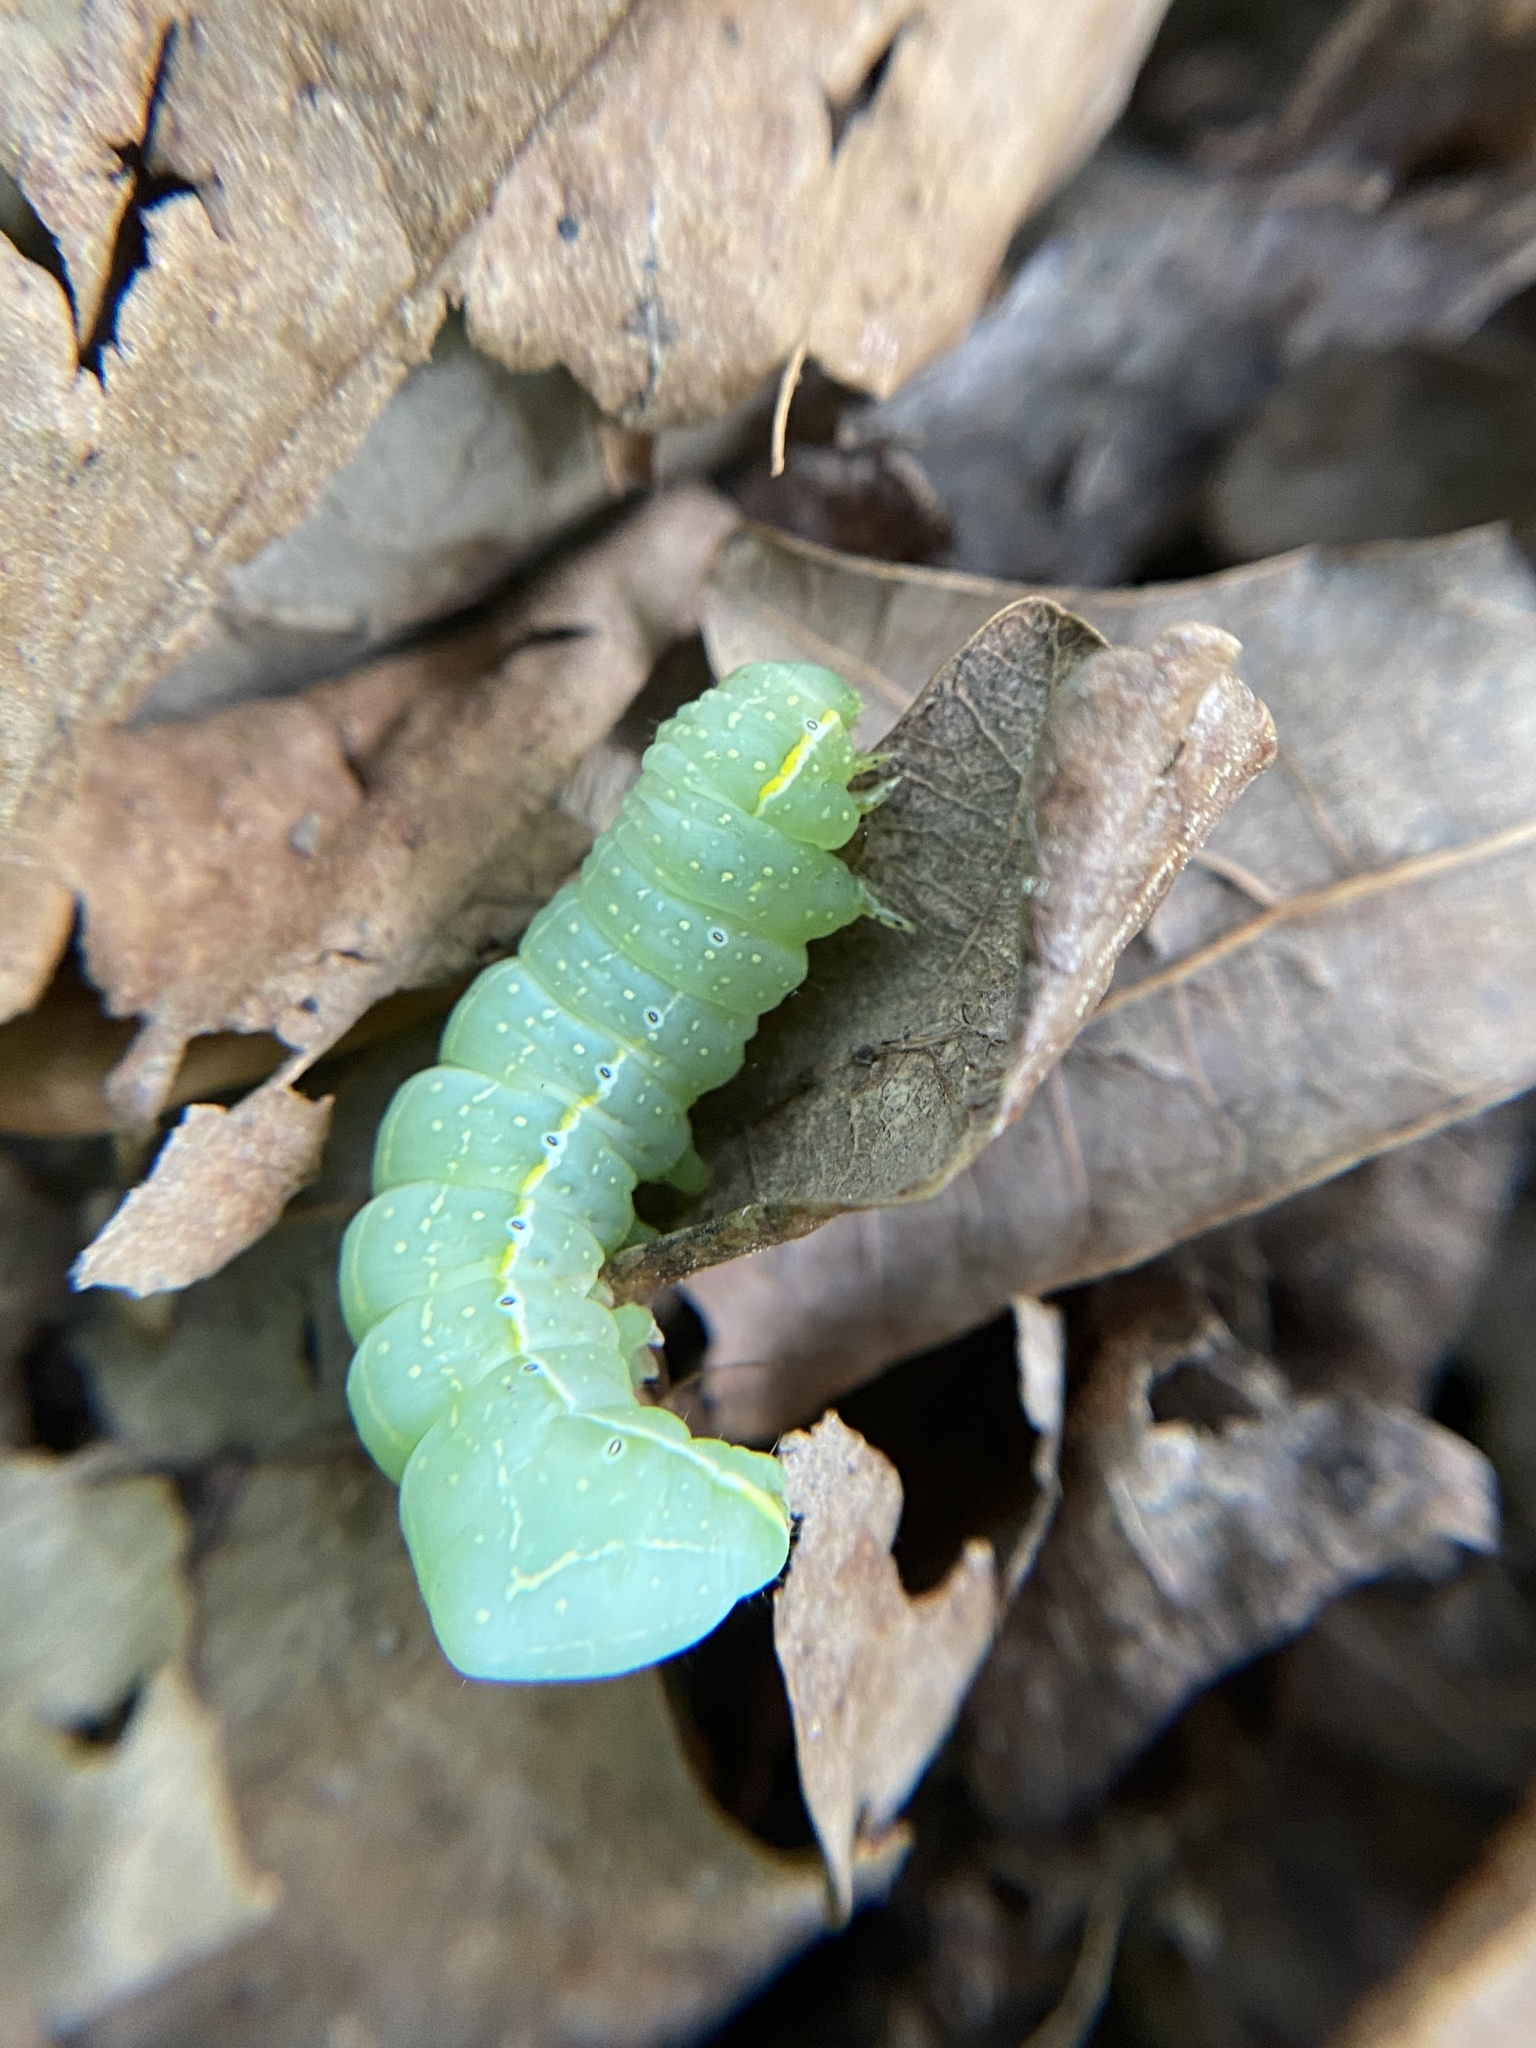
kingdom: Animalia
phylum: Arthropoda
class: Insecta
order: Lepidoptera
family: Noctuidae
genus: Amphipyra
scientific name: Amphipyra pyramidoides
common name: American copper underwing
